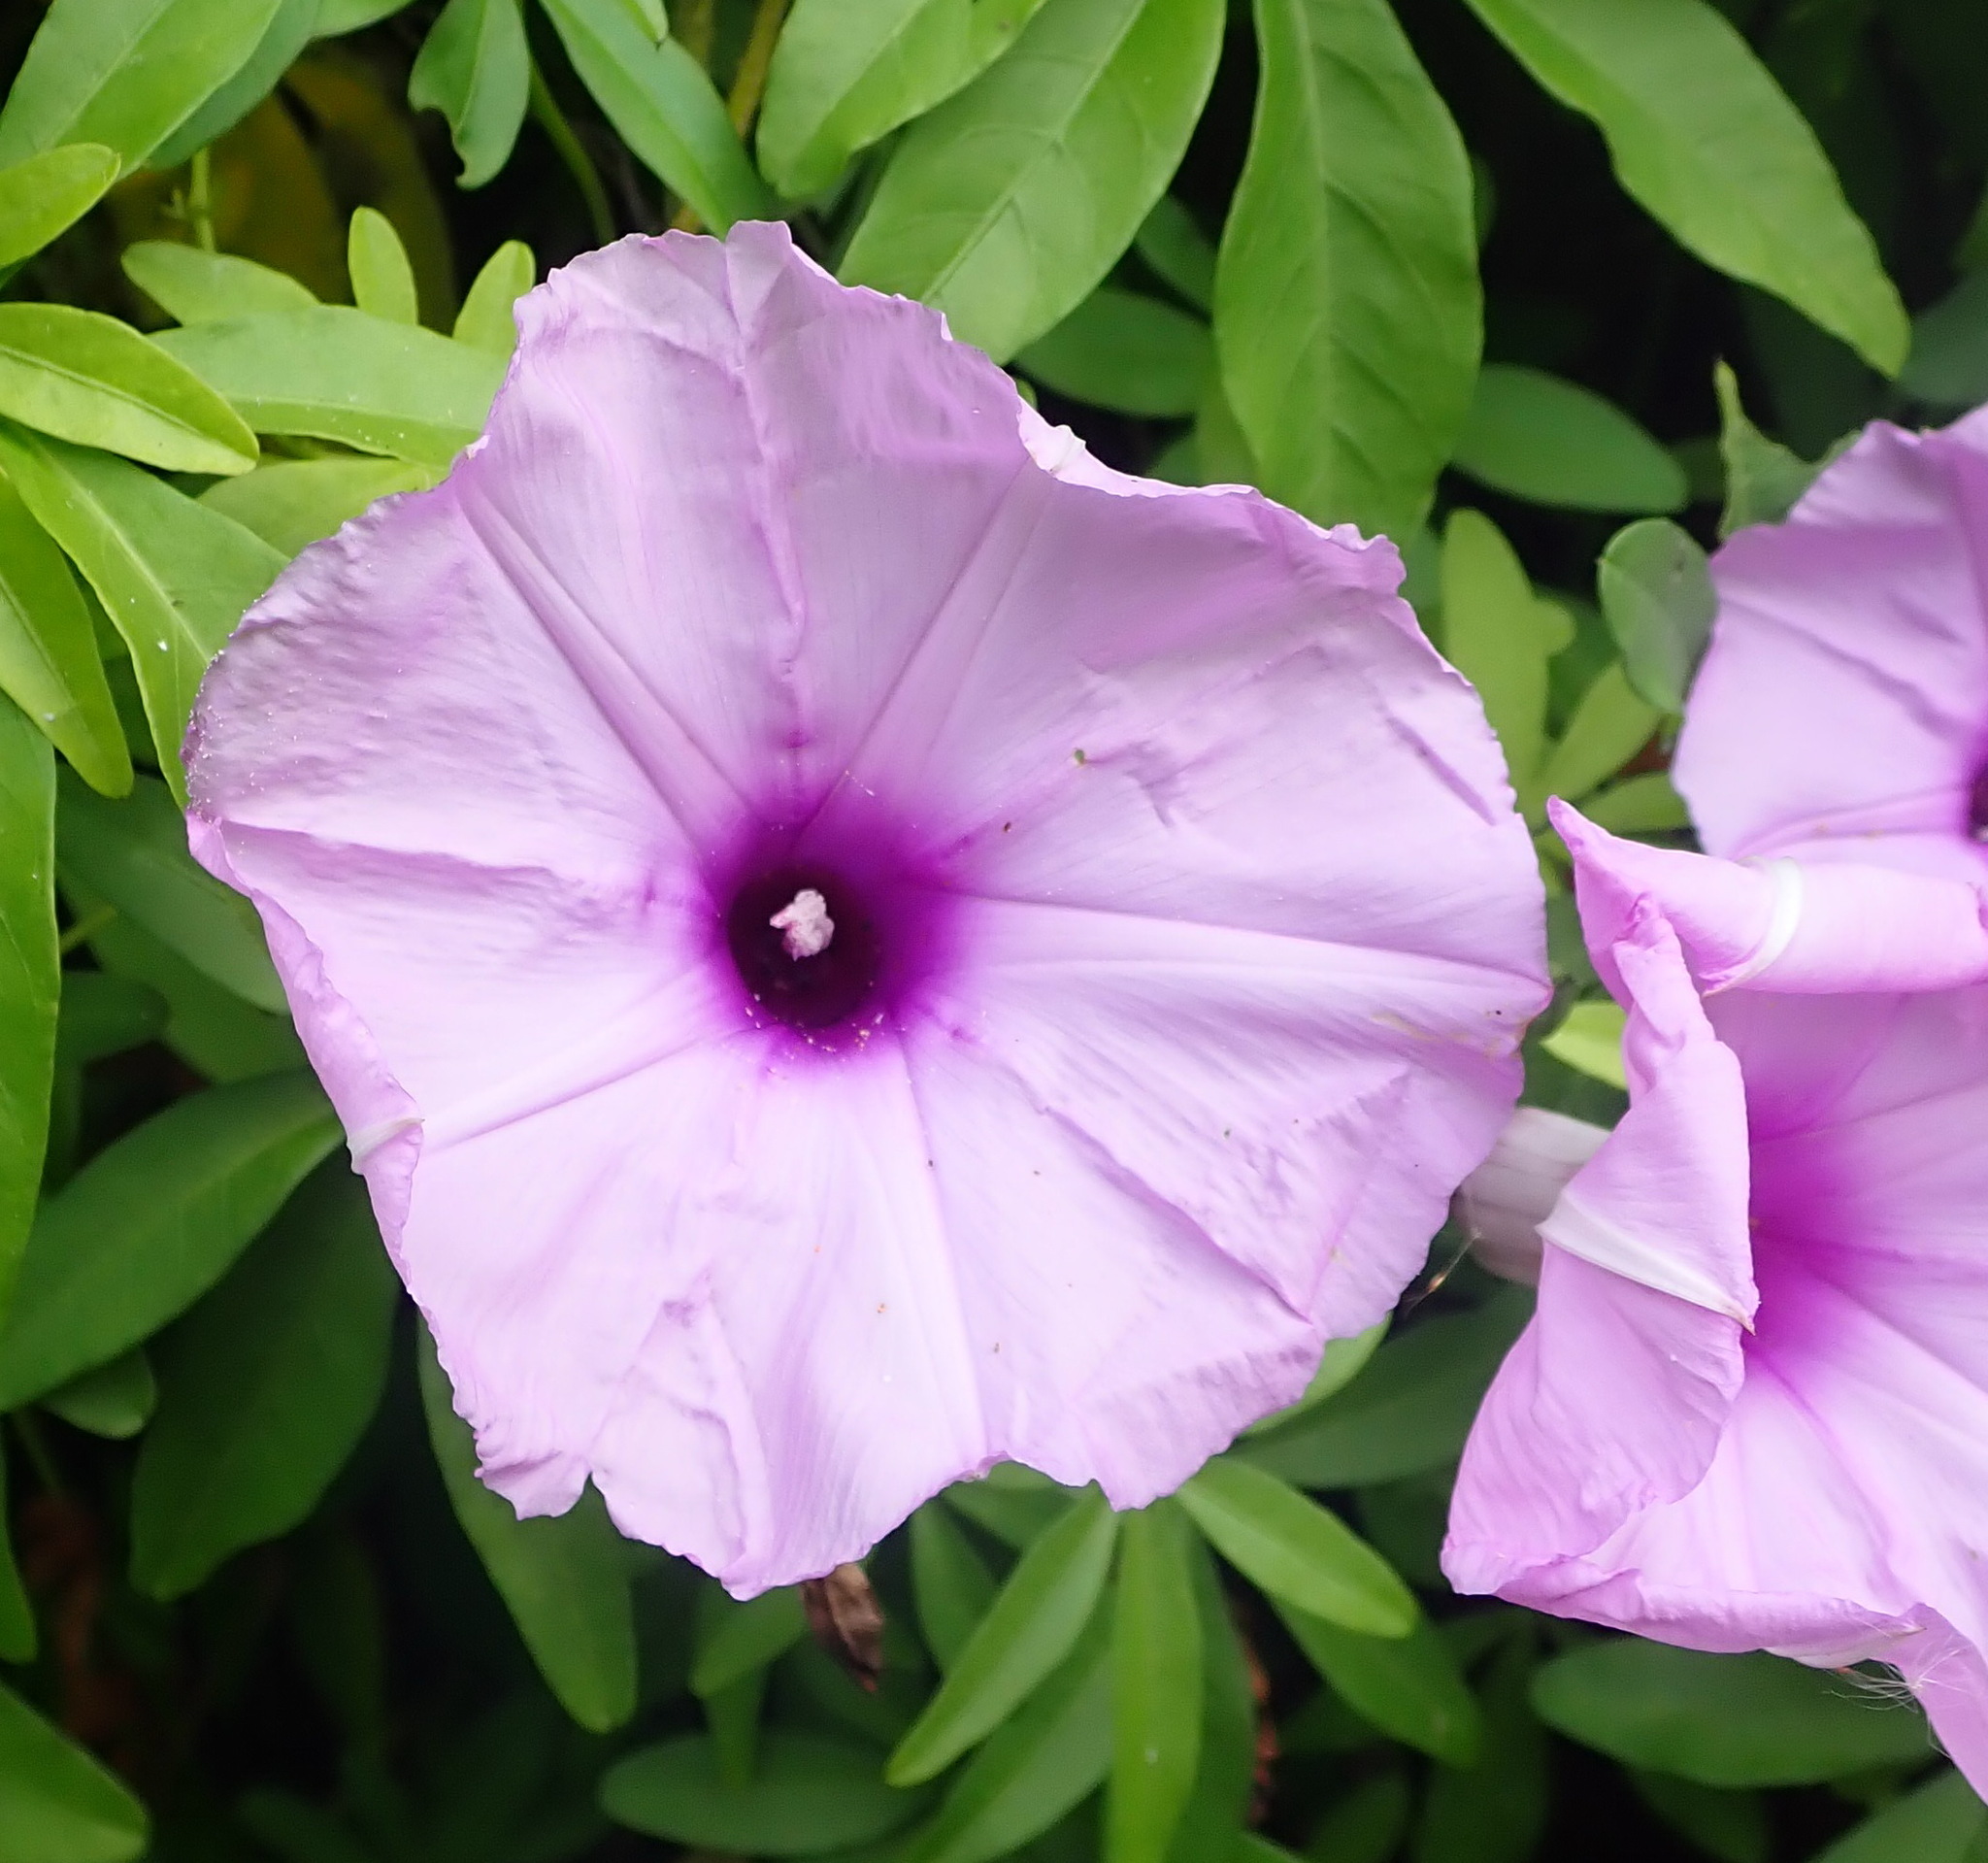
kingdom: Plantae
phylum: Tracheophyta
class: Magnoliopsida
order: Solanales
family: Convolvulaceae
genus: Ipomoea
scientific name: Ipomoea cairica
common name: Mile a minute vine
